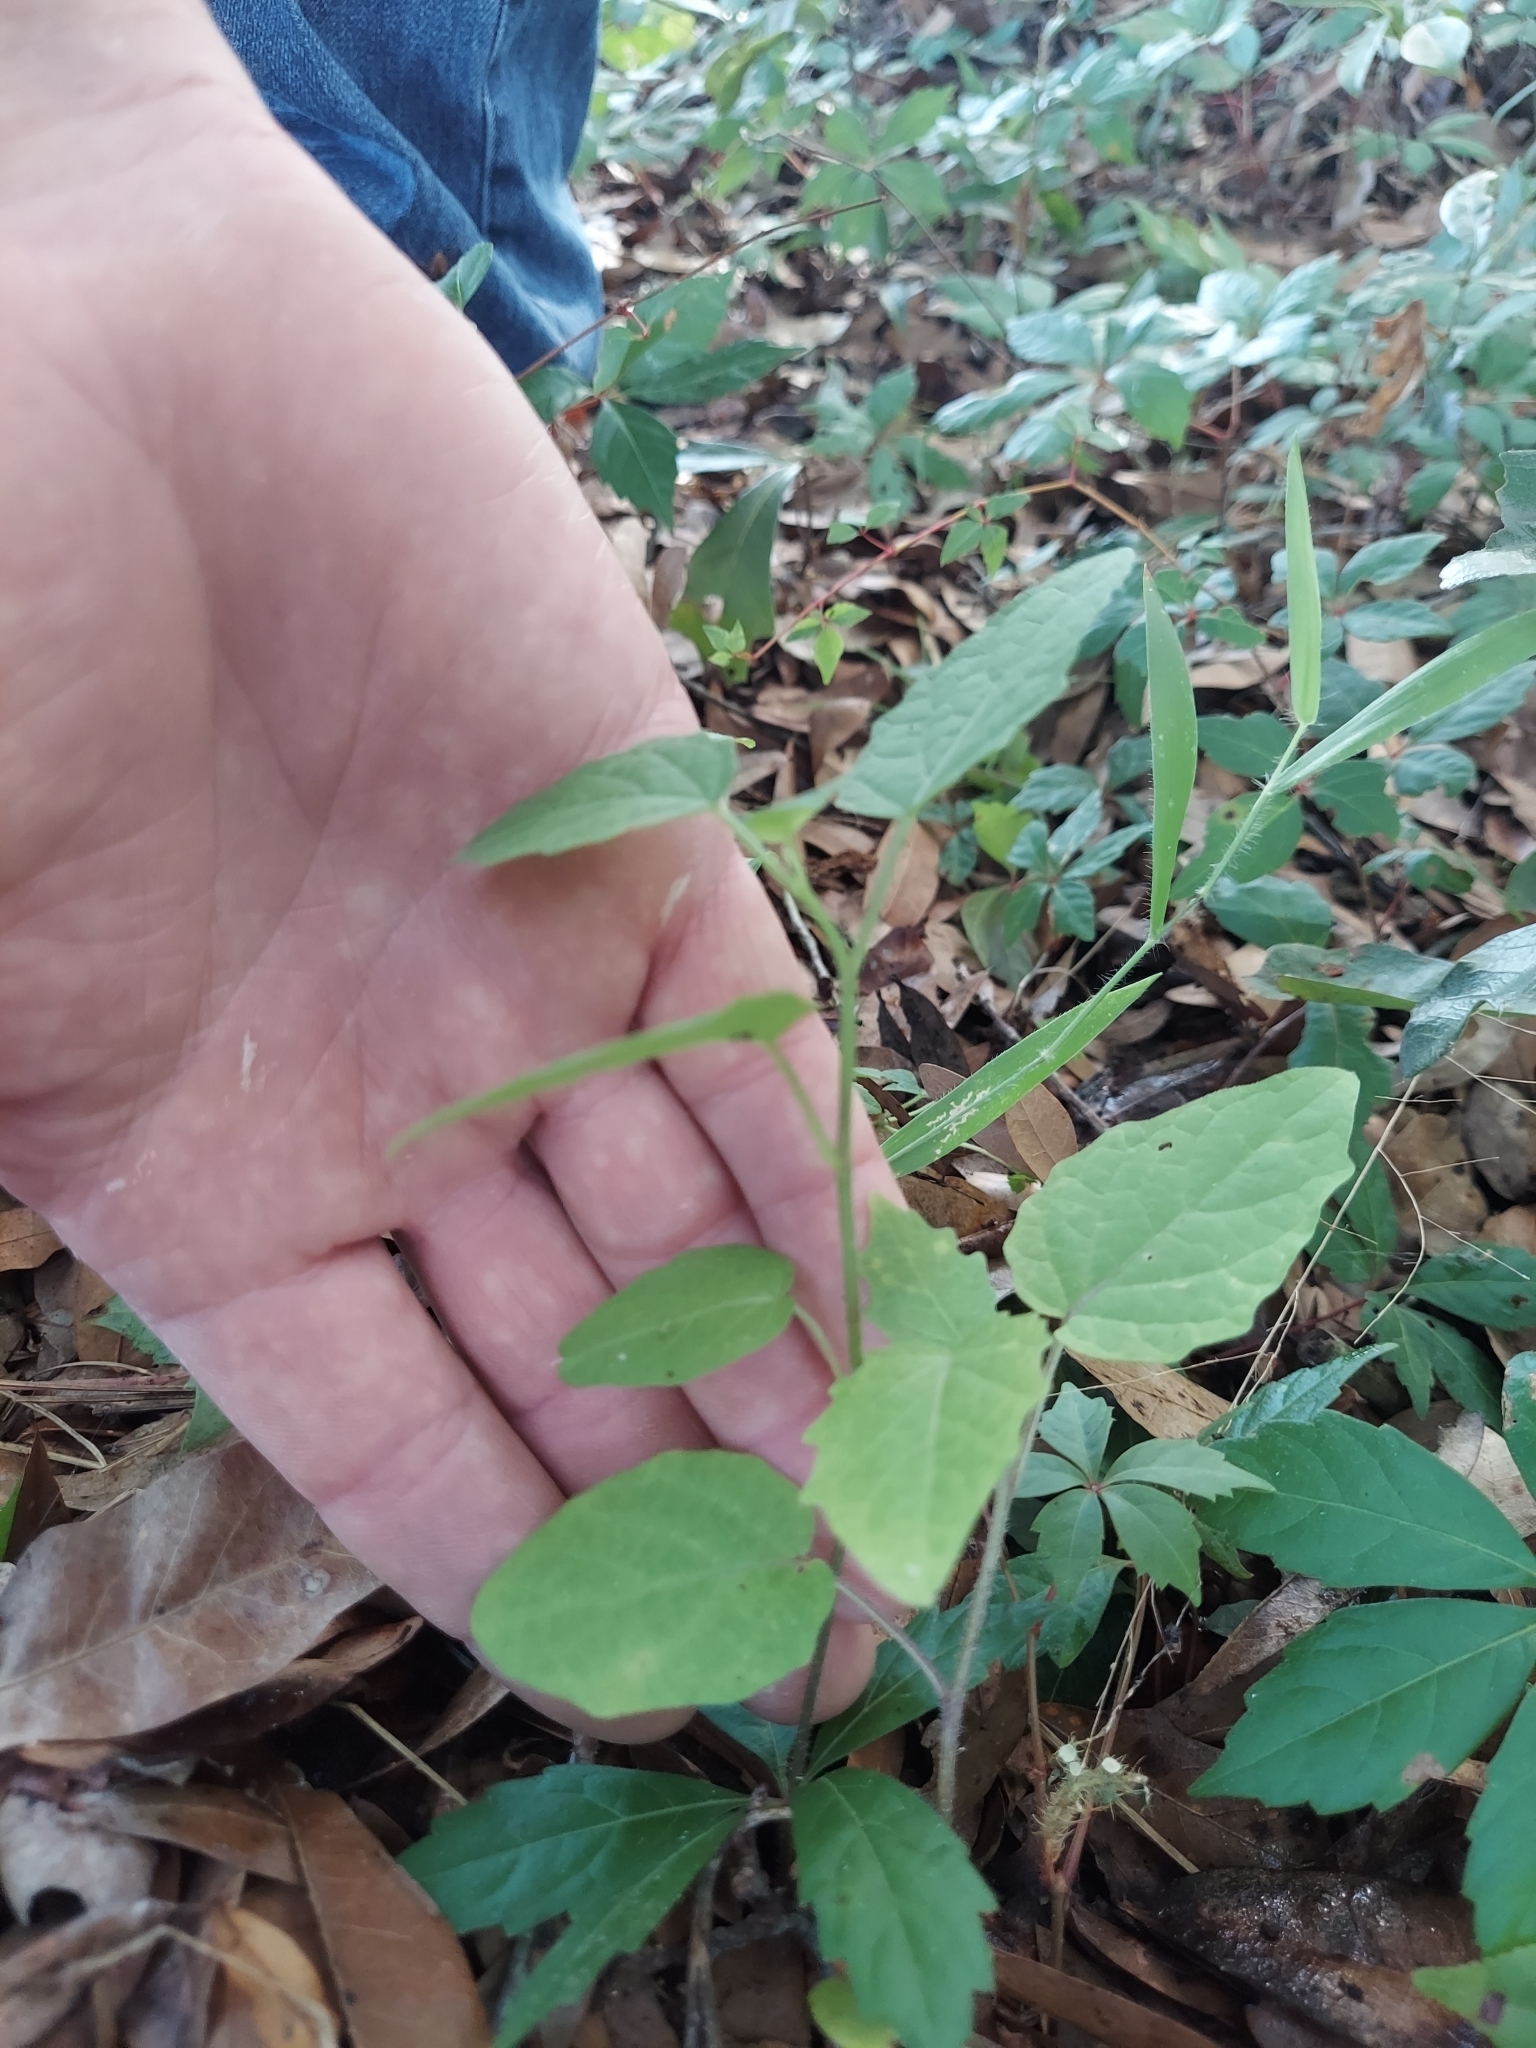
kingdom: Plantae
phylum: Tracheophyta
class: Magnoliopsida
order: Solanales
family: Solanaceae
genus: Physalis
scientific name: Physalis arenicola
